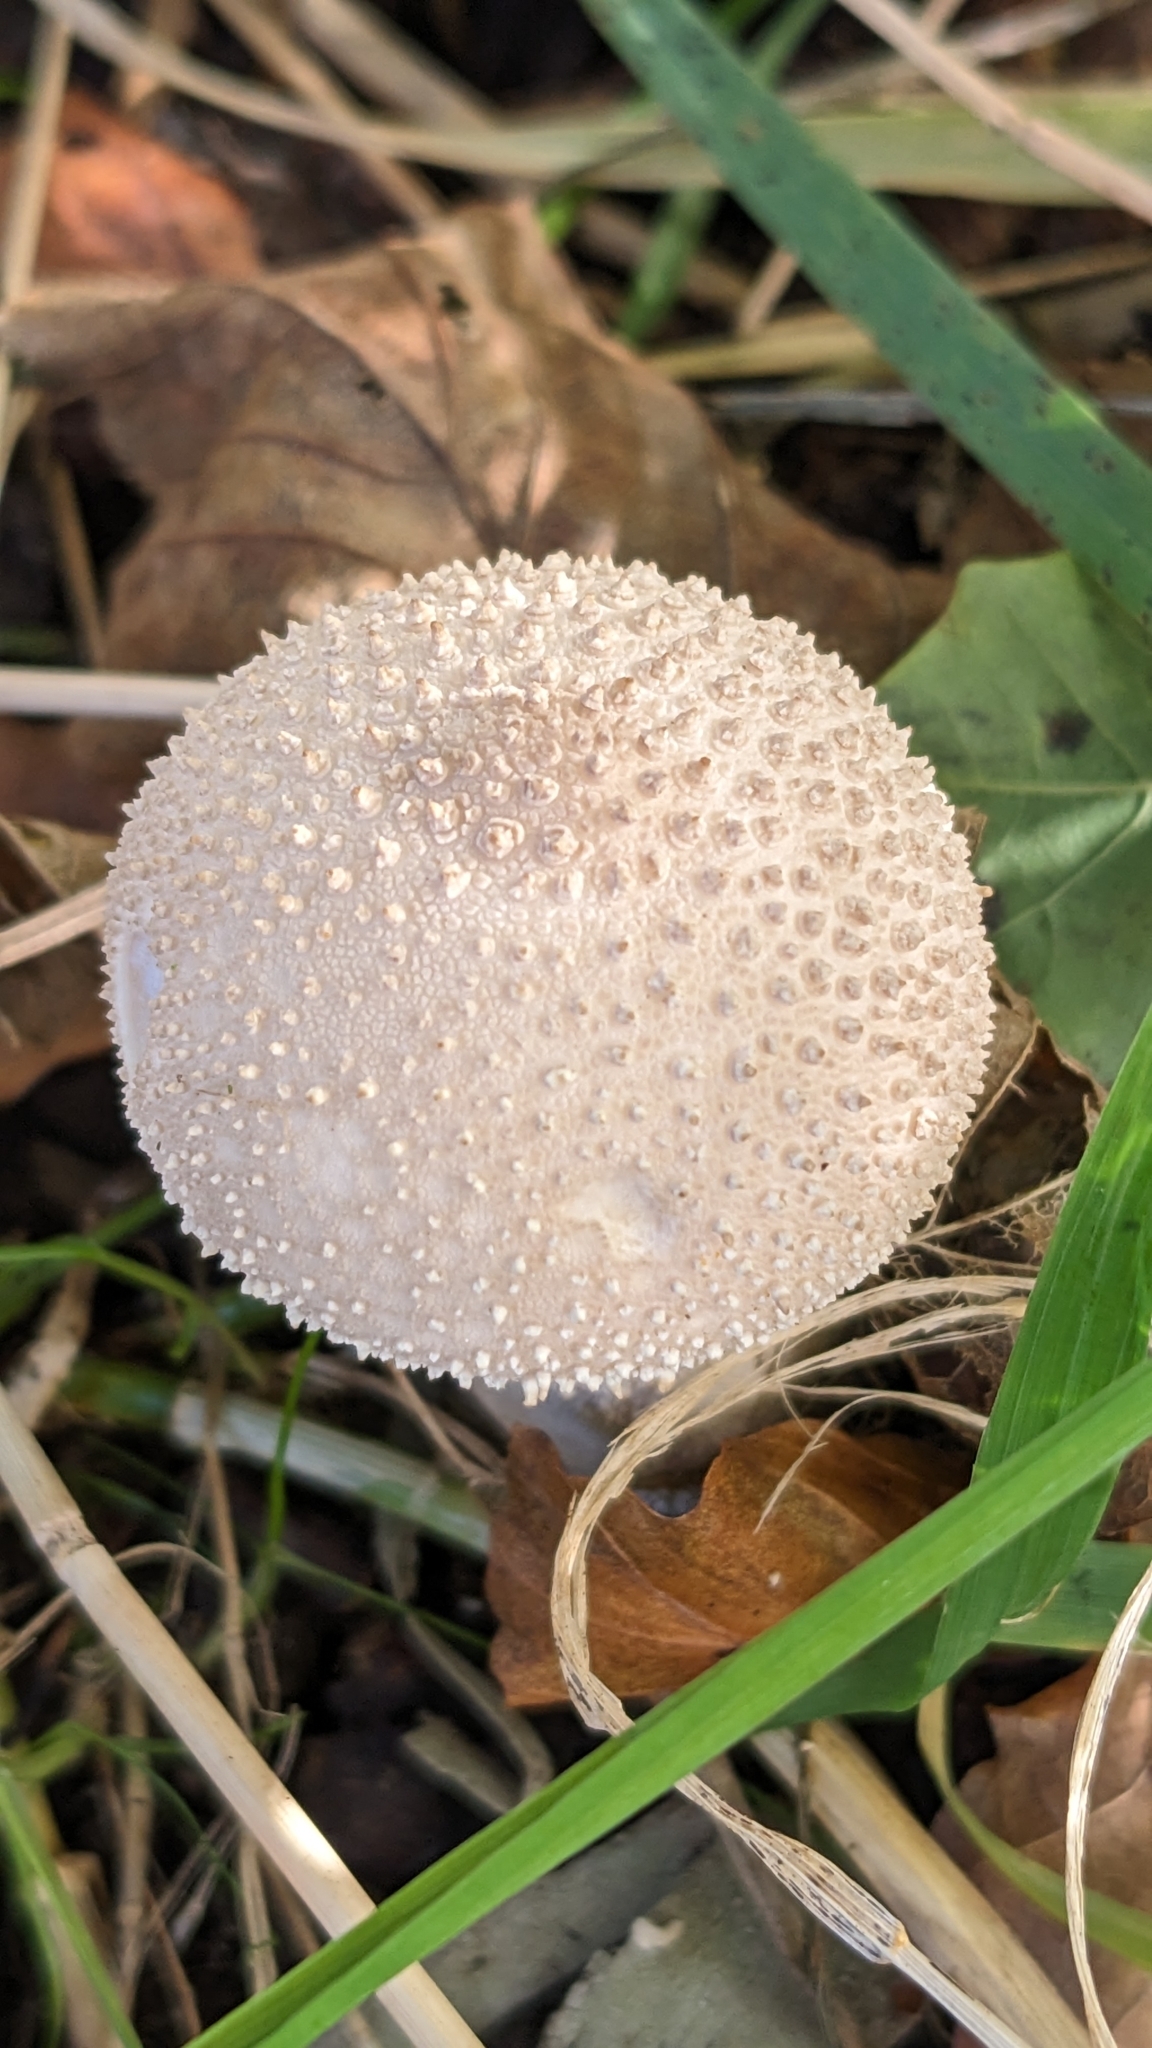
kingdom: Fungi
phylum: Basidiomycota
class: Agaricomycetes
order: Agaricales
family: Lycoperdaceae
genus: Lycoperdon
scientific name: Lycoperdon perlatum
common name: Common puffball
